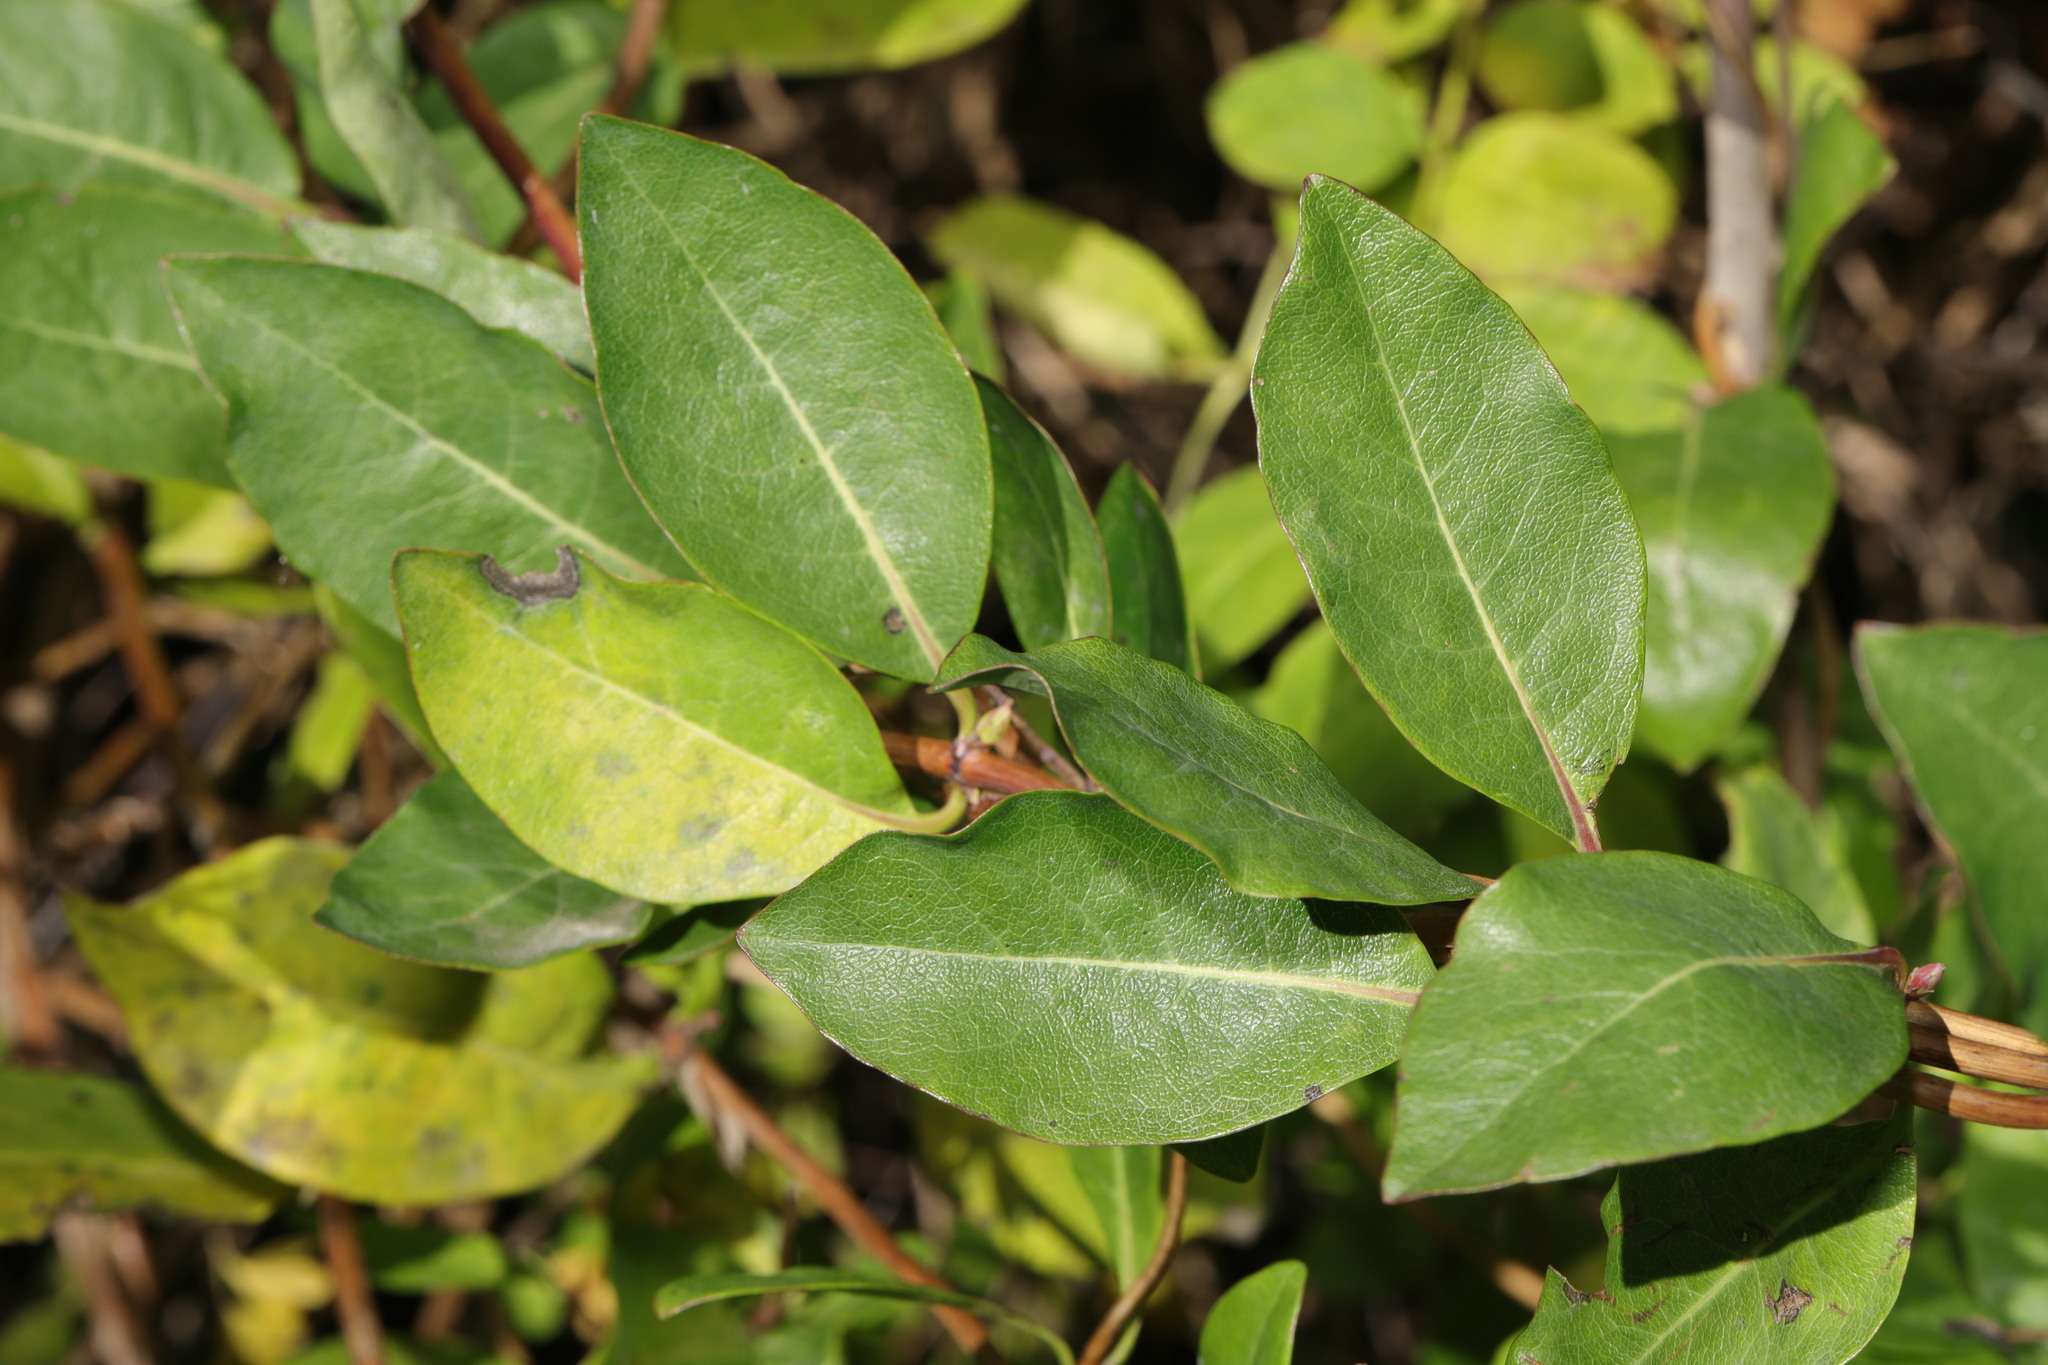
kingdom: Plantae
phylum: Tracheophyta
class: Magnoliopsida
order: Dipsacales
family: Caprifoliaceae
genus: Lonicera
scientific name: Lonicera periclymenum
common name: European honeysuckle
